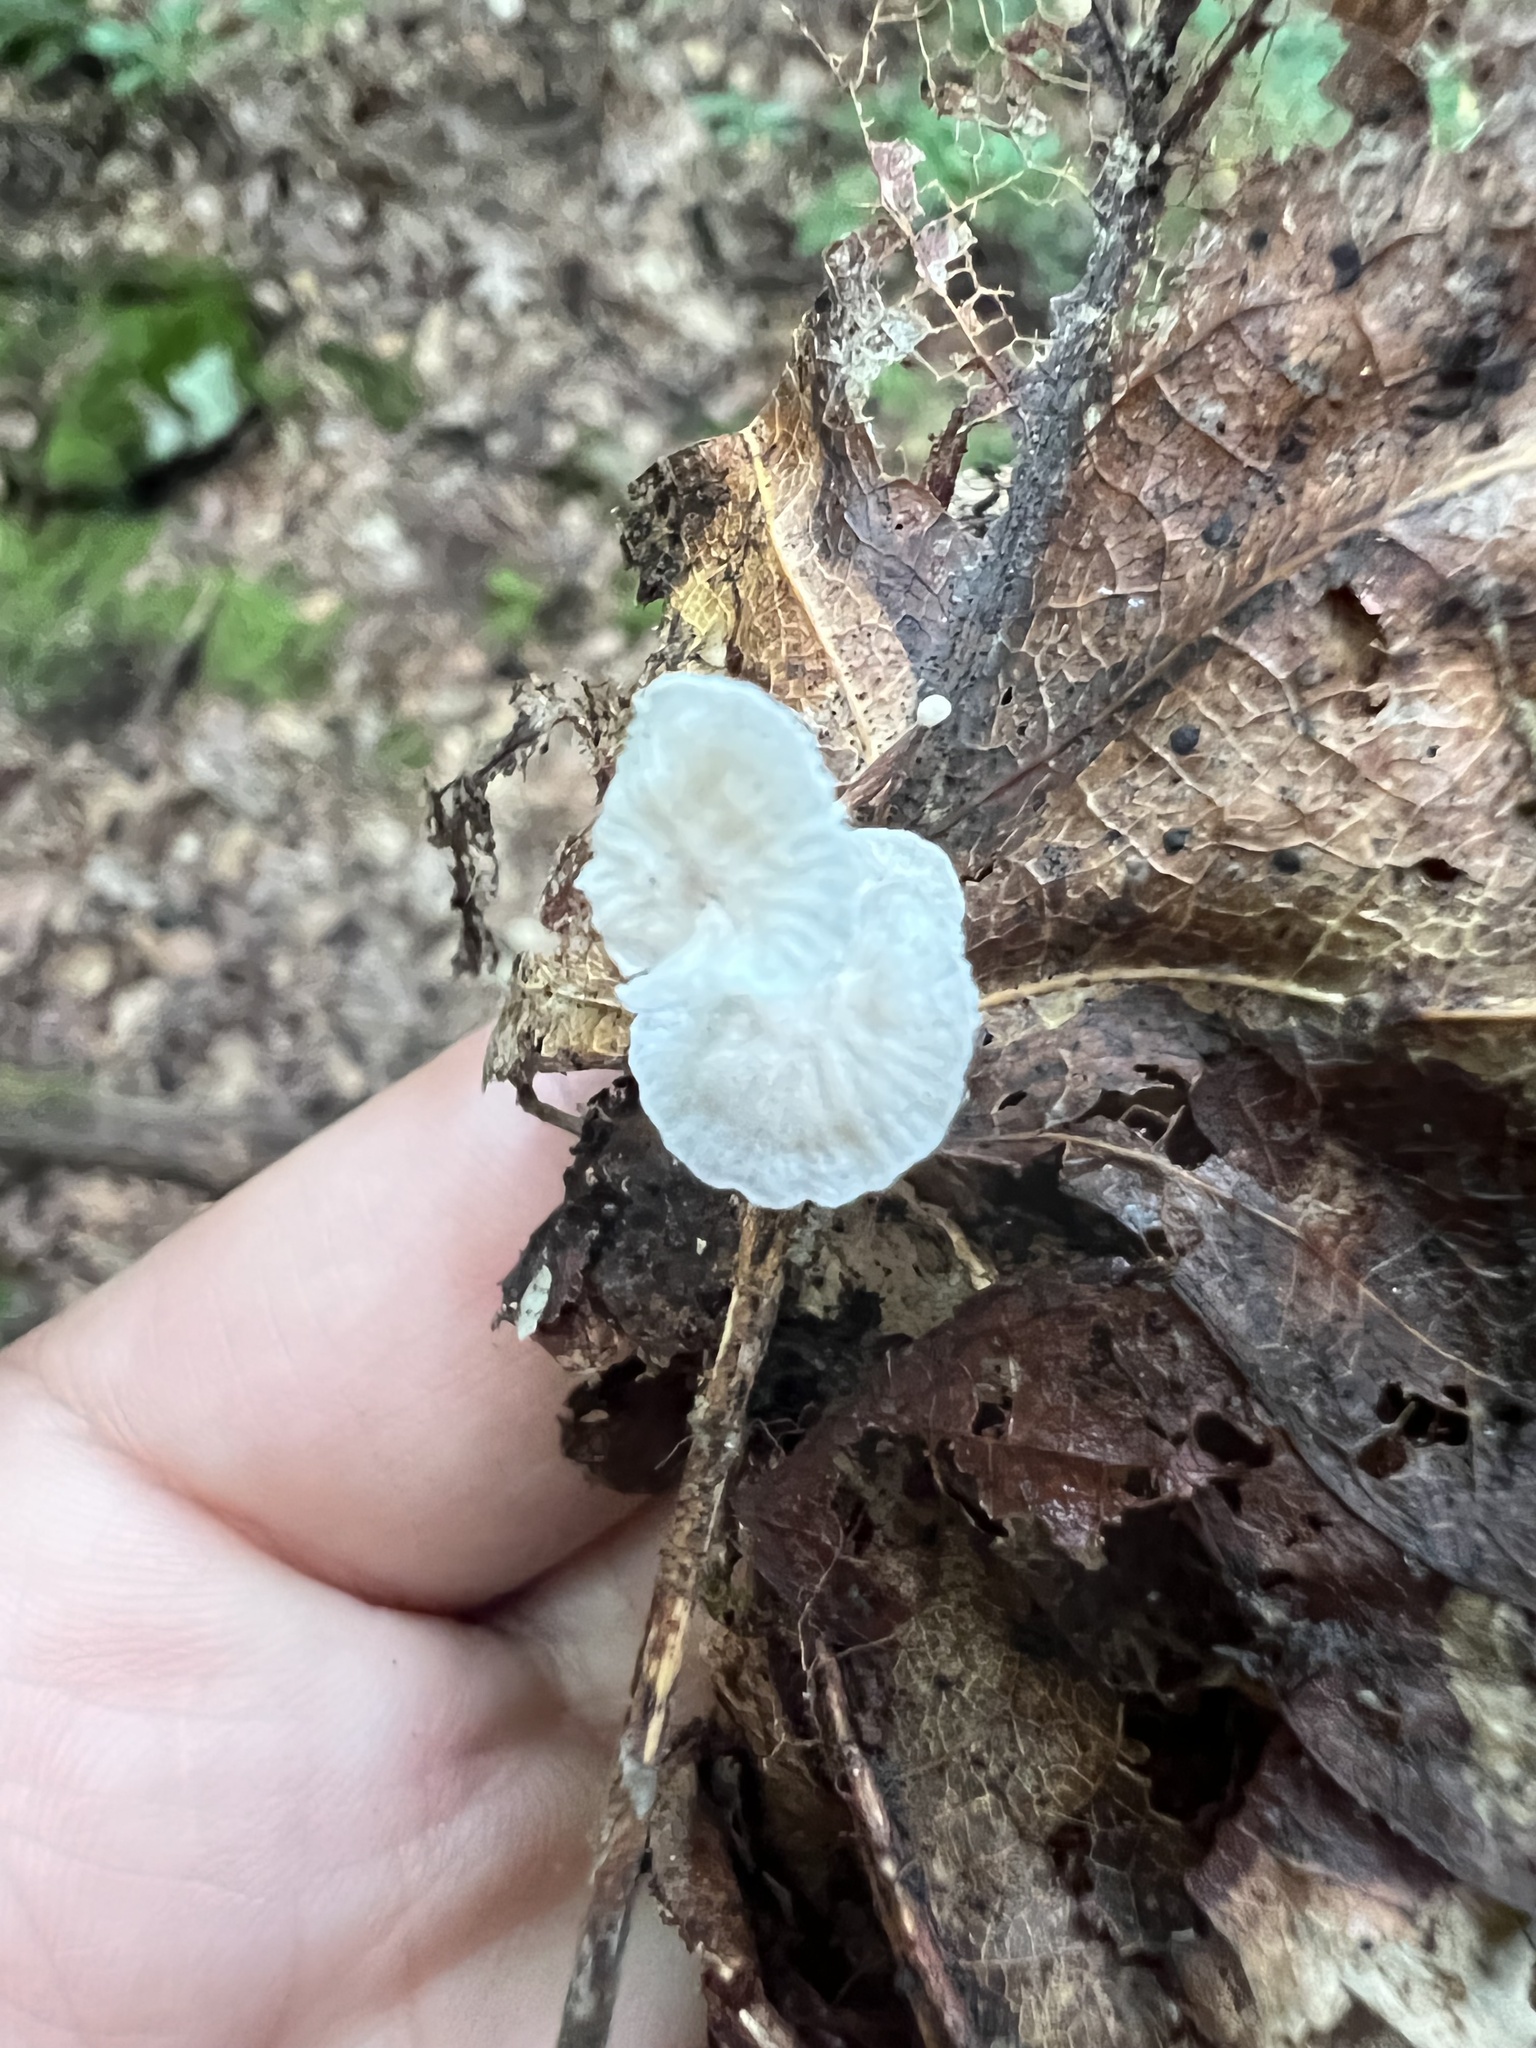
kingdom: Fungi
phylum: Basidiomycota
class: Agaricomycetes
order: Agaricales
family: Omphalotaceae
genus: Gymnopus
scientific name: Gymnopus spongiosus
